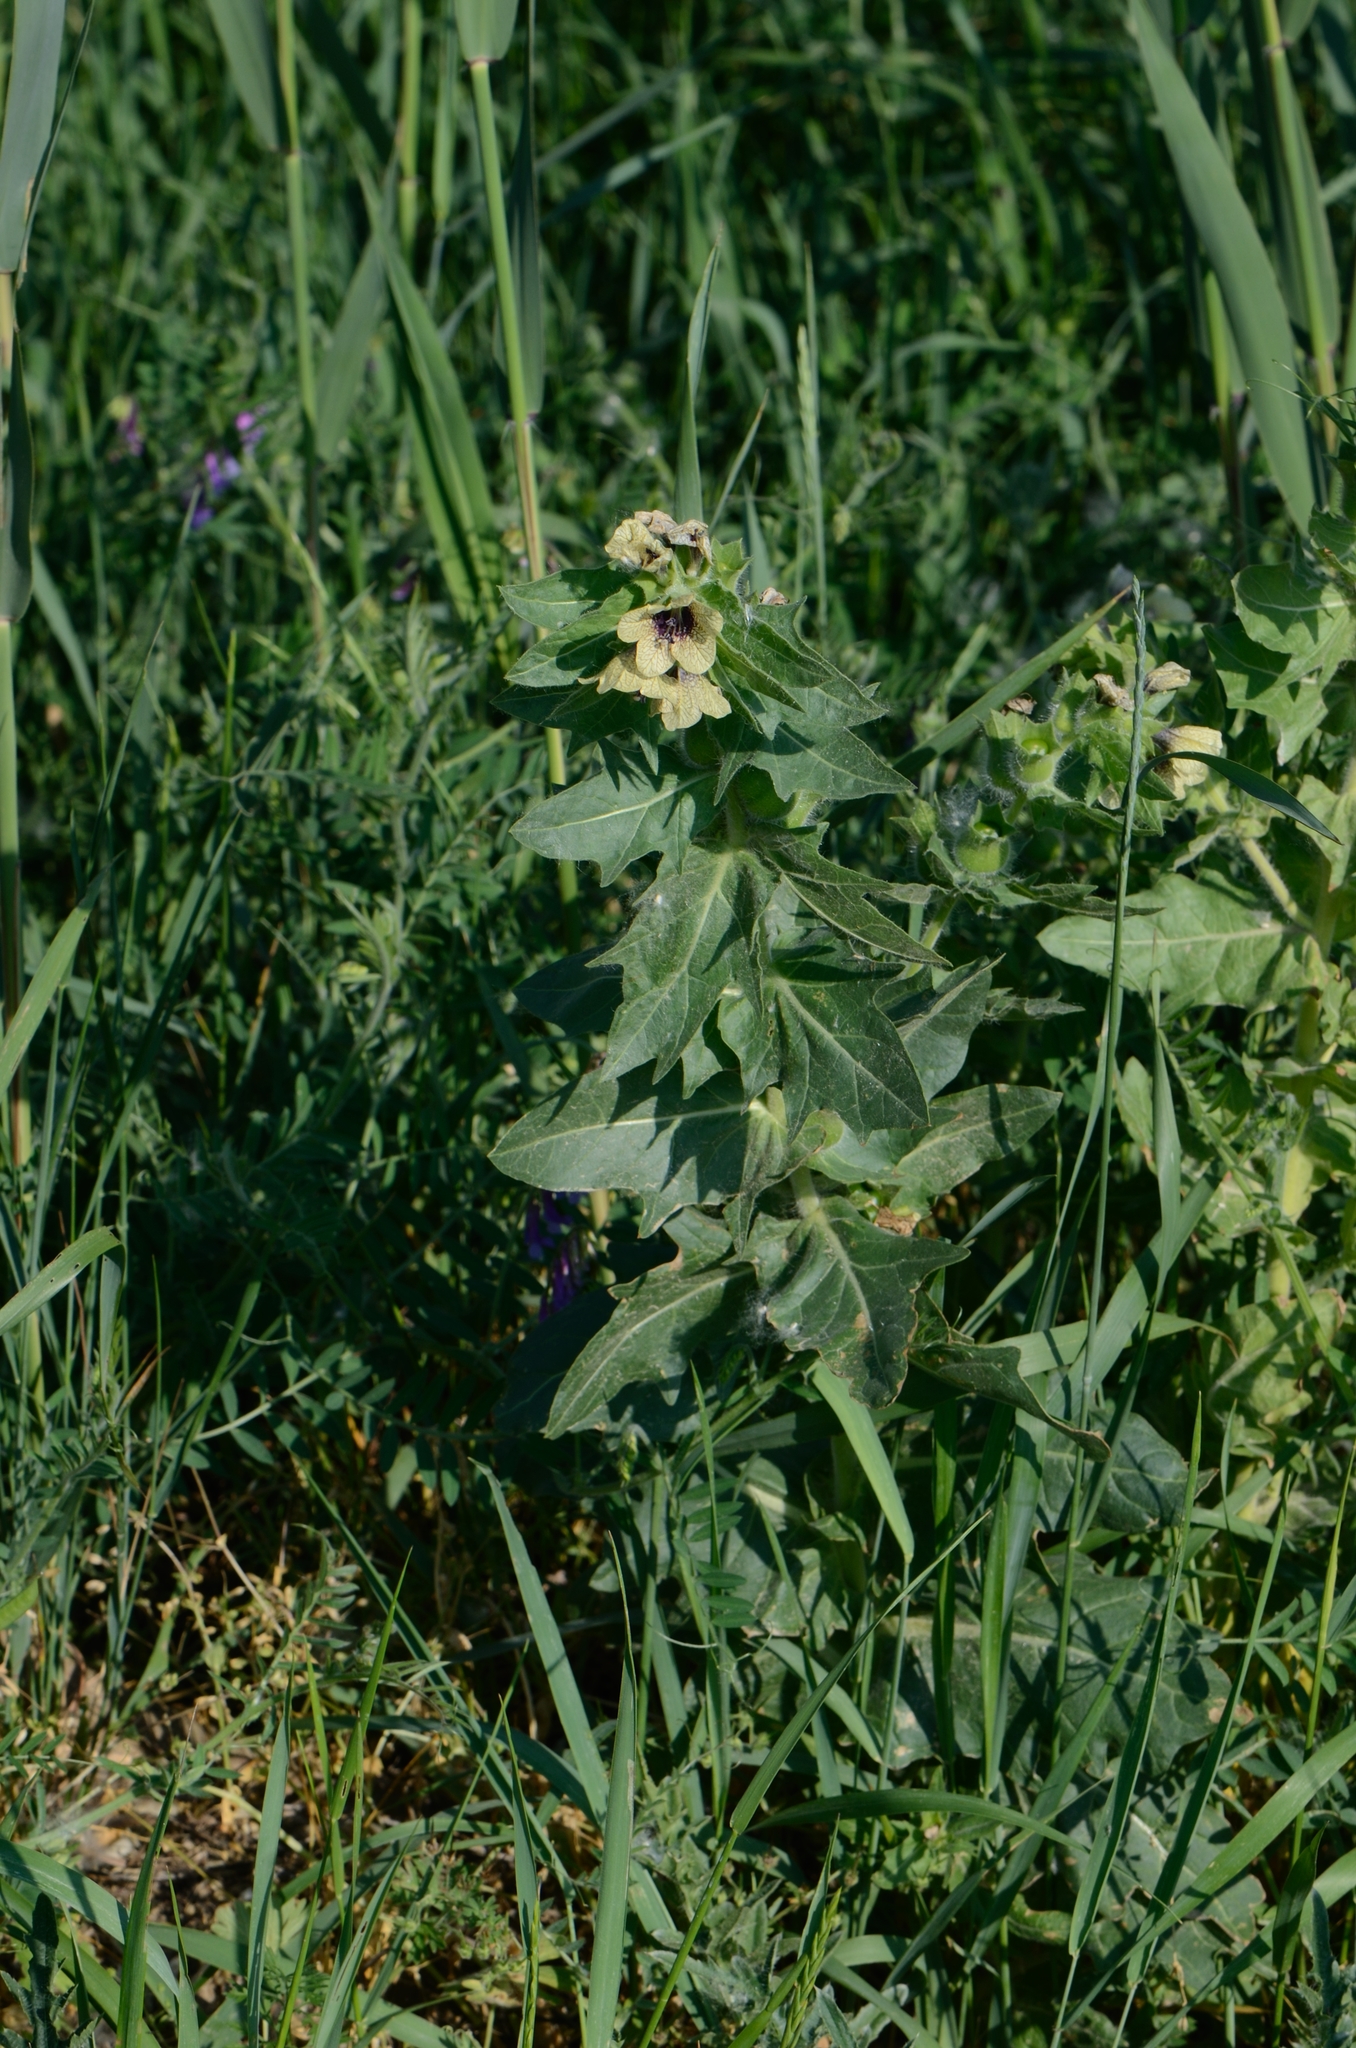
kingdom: Plantae
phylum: Tracheophyta
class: Magnoliopsida
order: Solanales
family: Solanaceae
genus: Hyoscyamus
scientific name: Hyoscyamus niger
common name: Henbane
